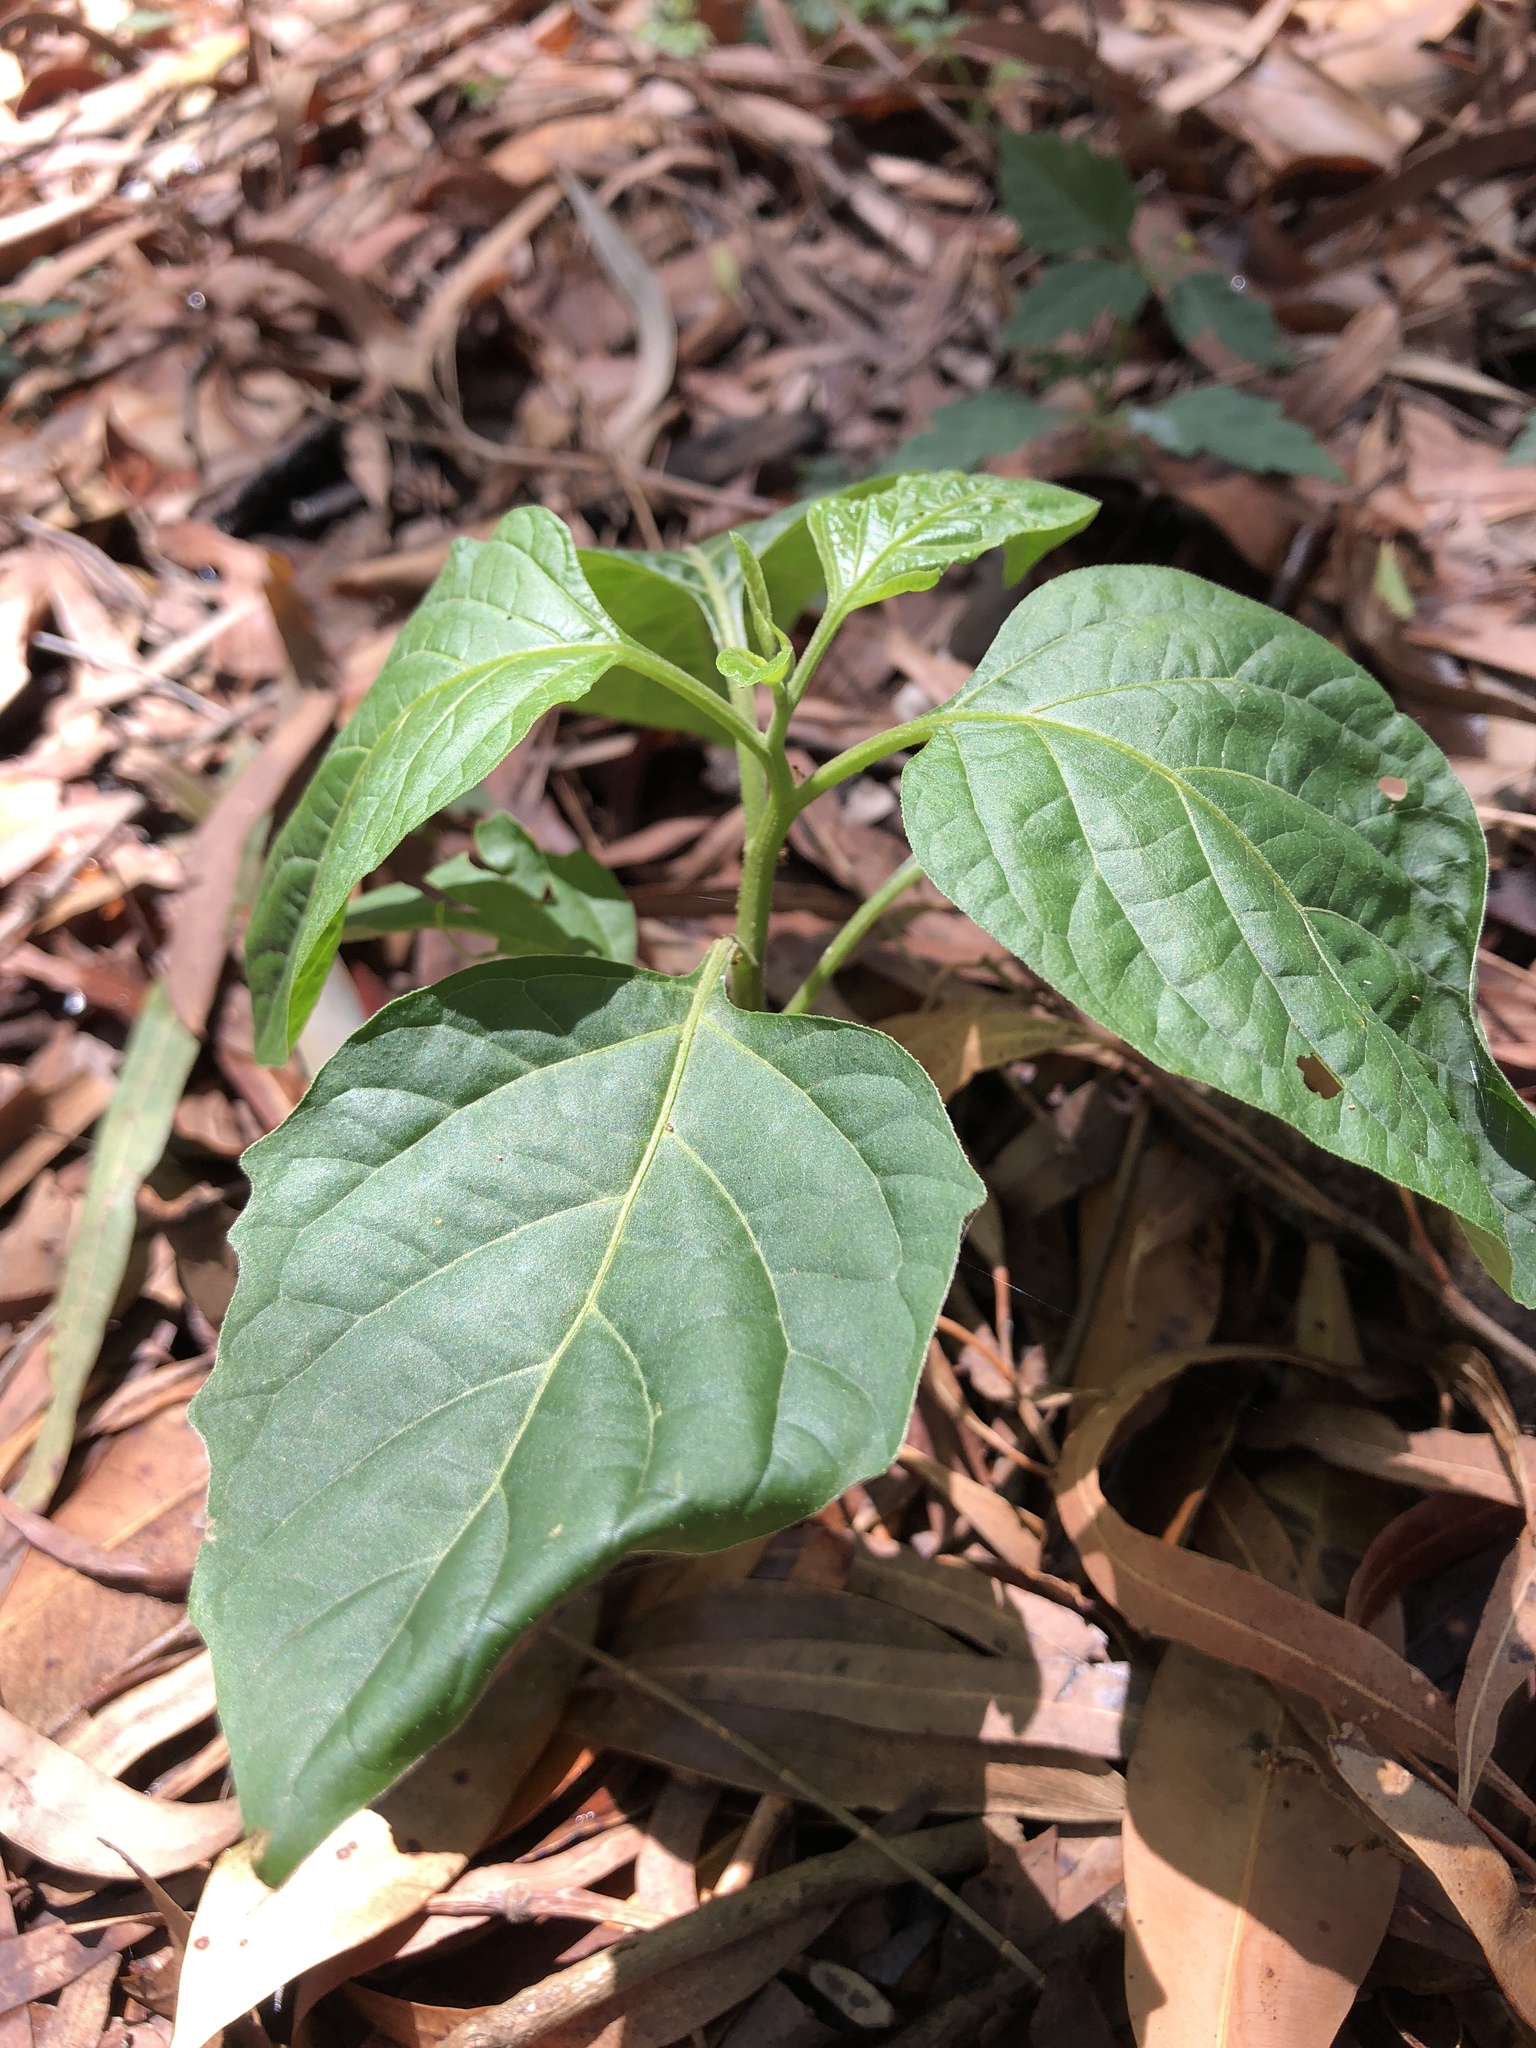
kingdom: Plantae
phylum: Tracheophyta
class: Magnoliopsida
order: Solanales
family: Solanaceae
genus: Solanum
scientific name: Solanum
